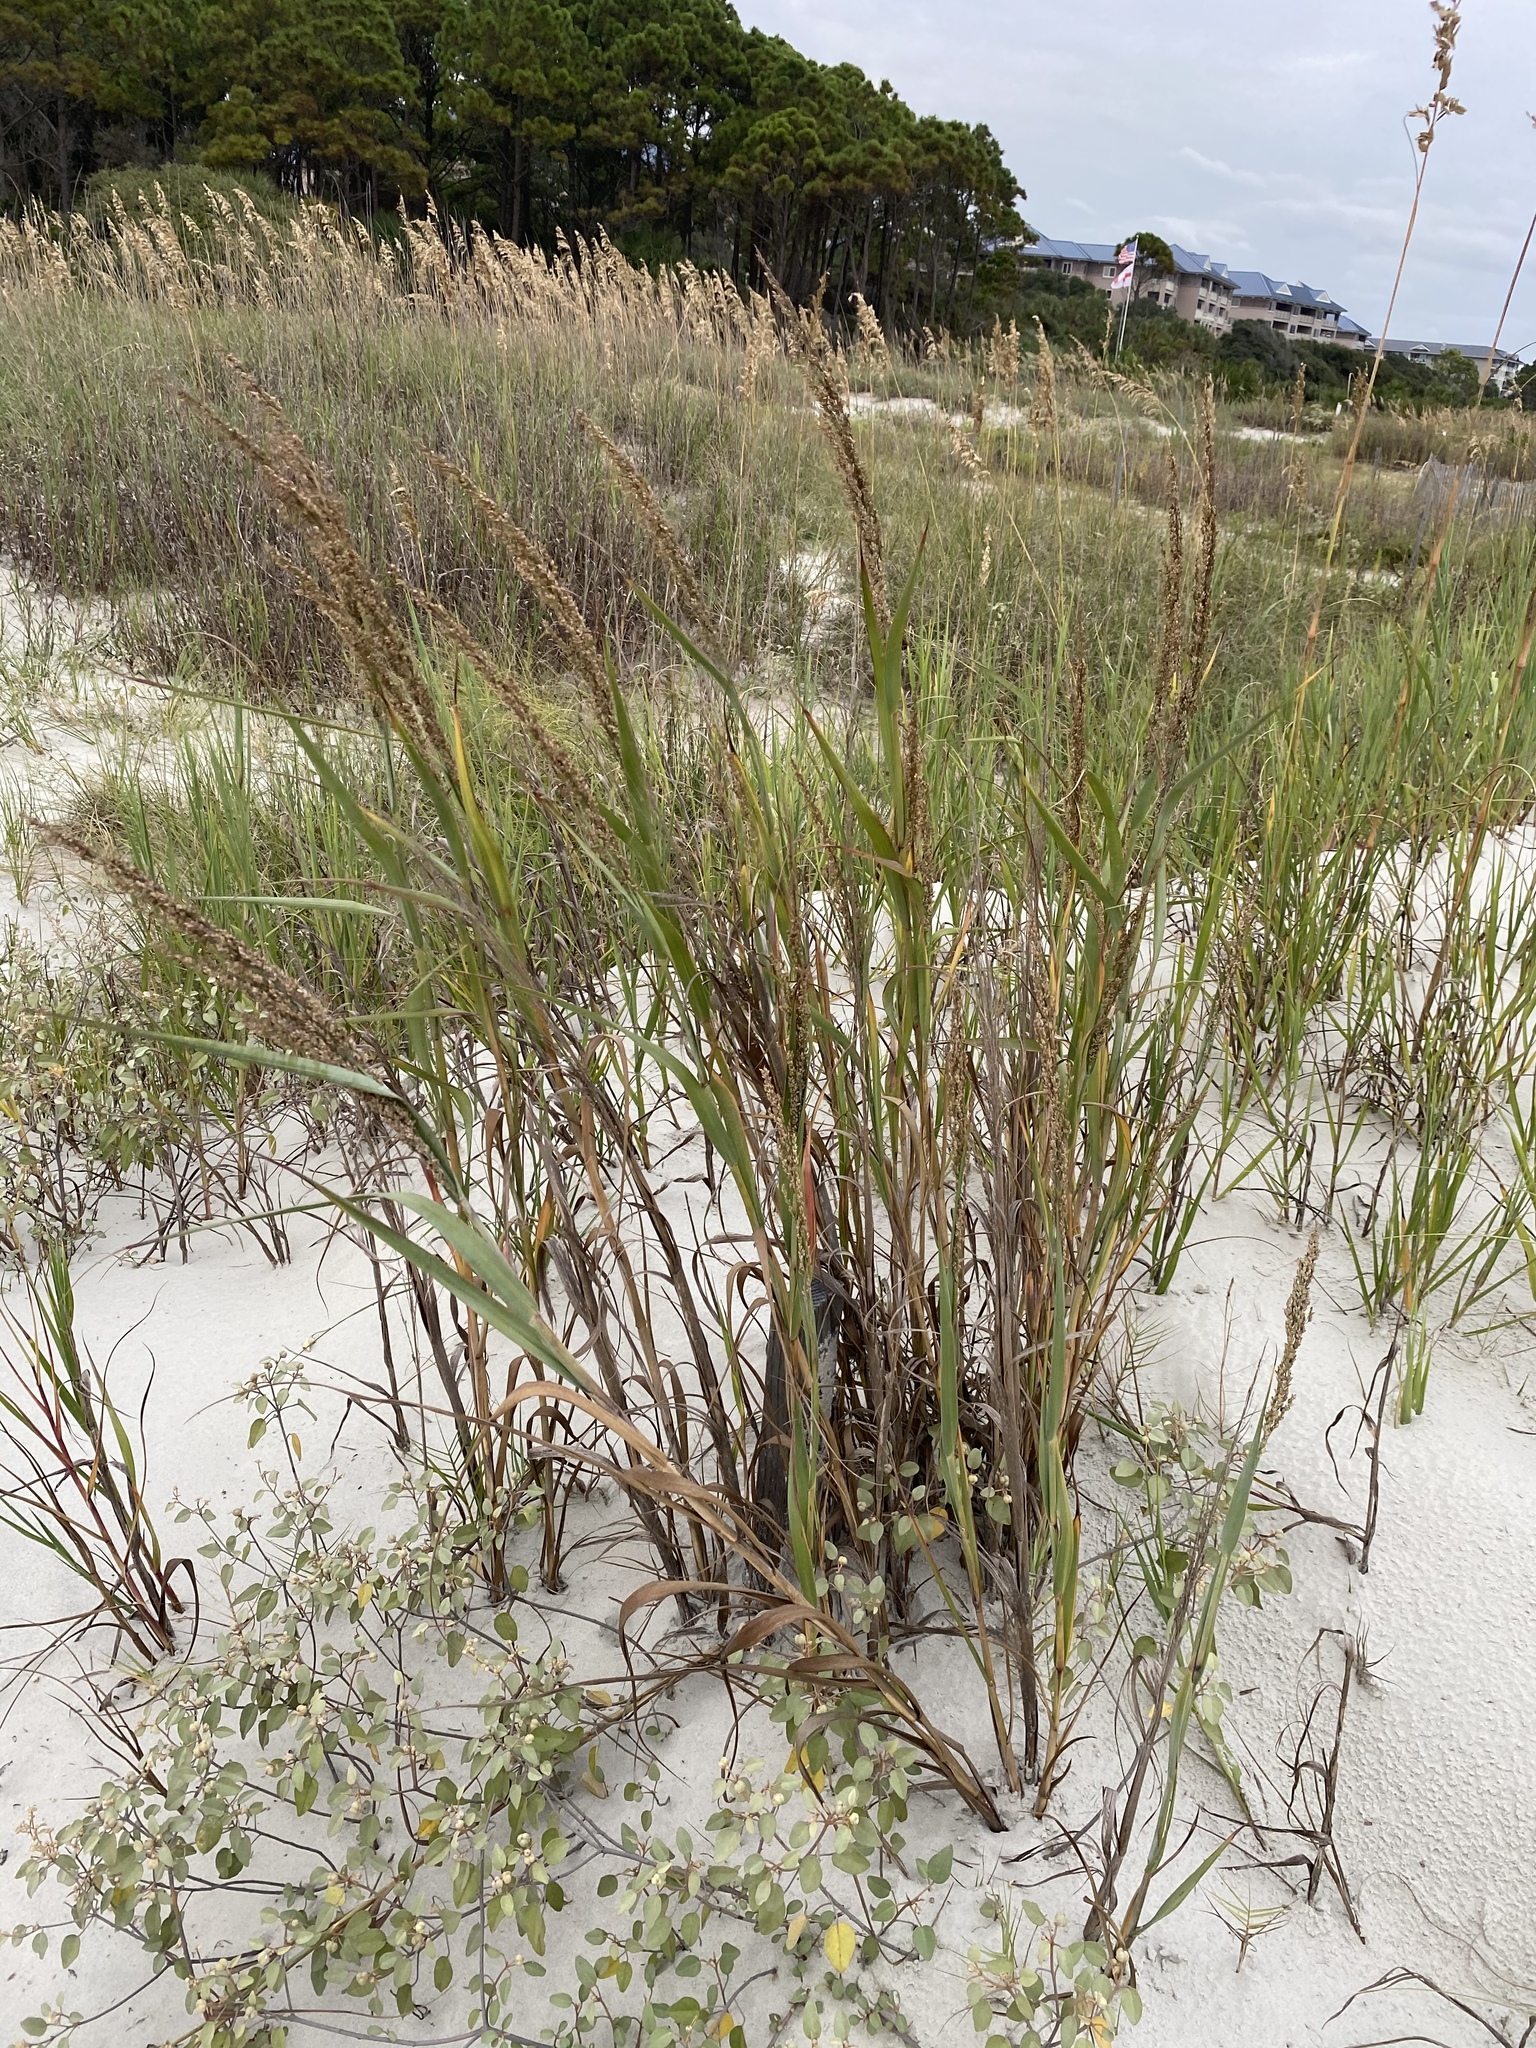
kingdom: Plantae
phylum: Tracheophyta
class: Liliopsida
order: Poales
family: Poaceae
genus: Panicum
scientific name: Panicum amarum
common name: Bitter panicum
